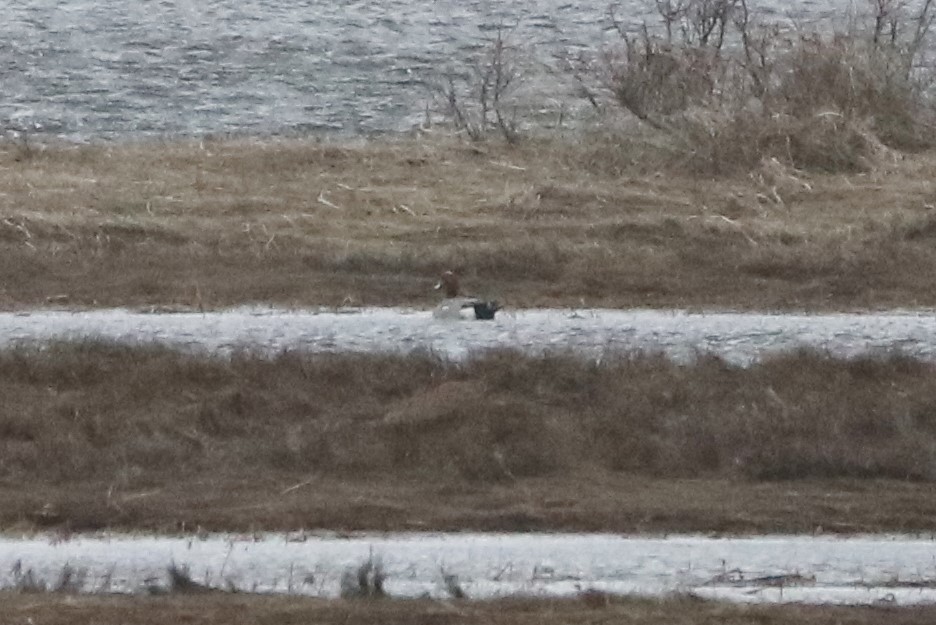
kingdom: Animalia
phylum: Chordata
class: Aves
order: Anseriformes
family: Anatidae
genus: Mareca
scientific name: Mareca penelope
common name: Eurasian wigeon
